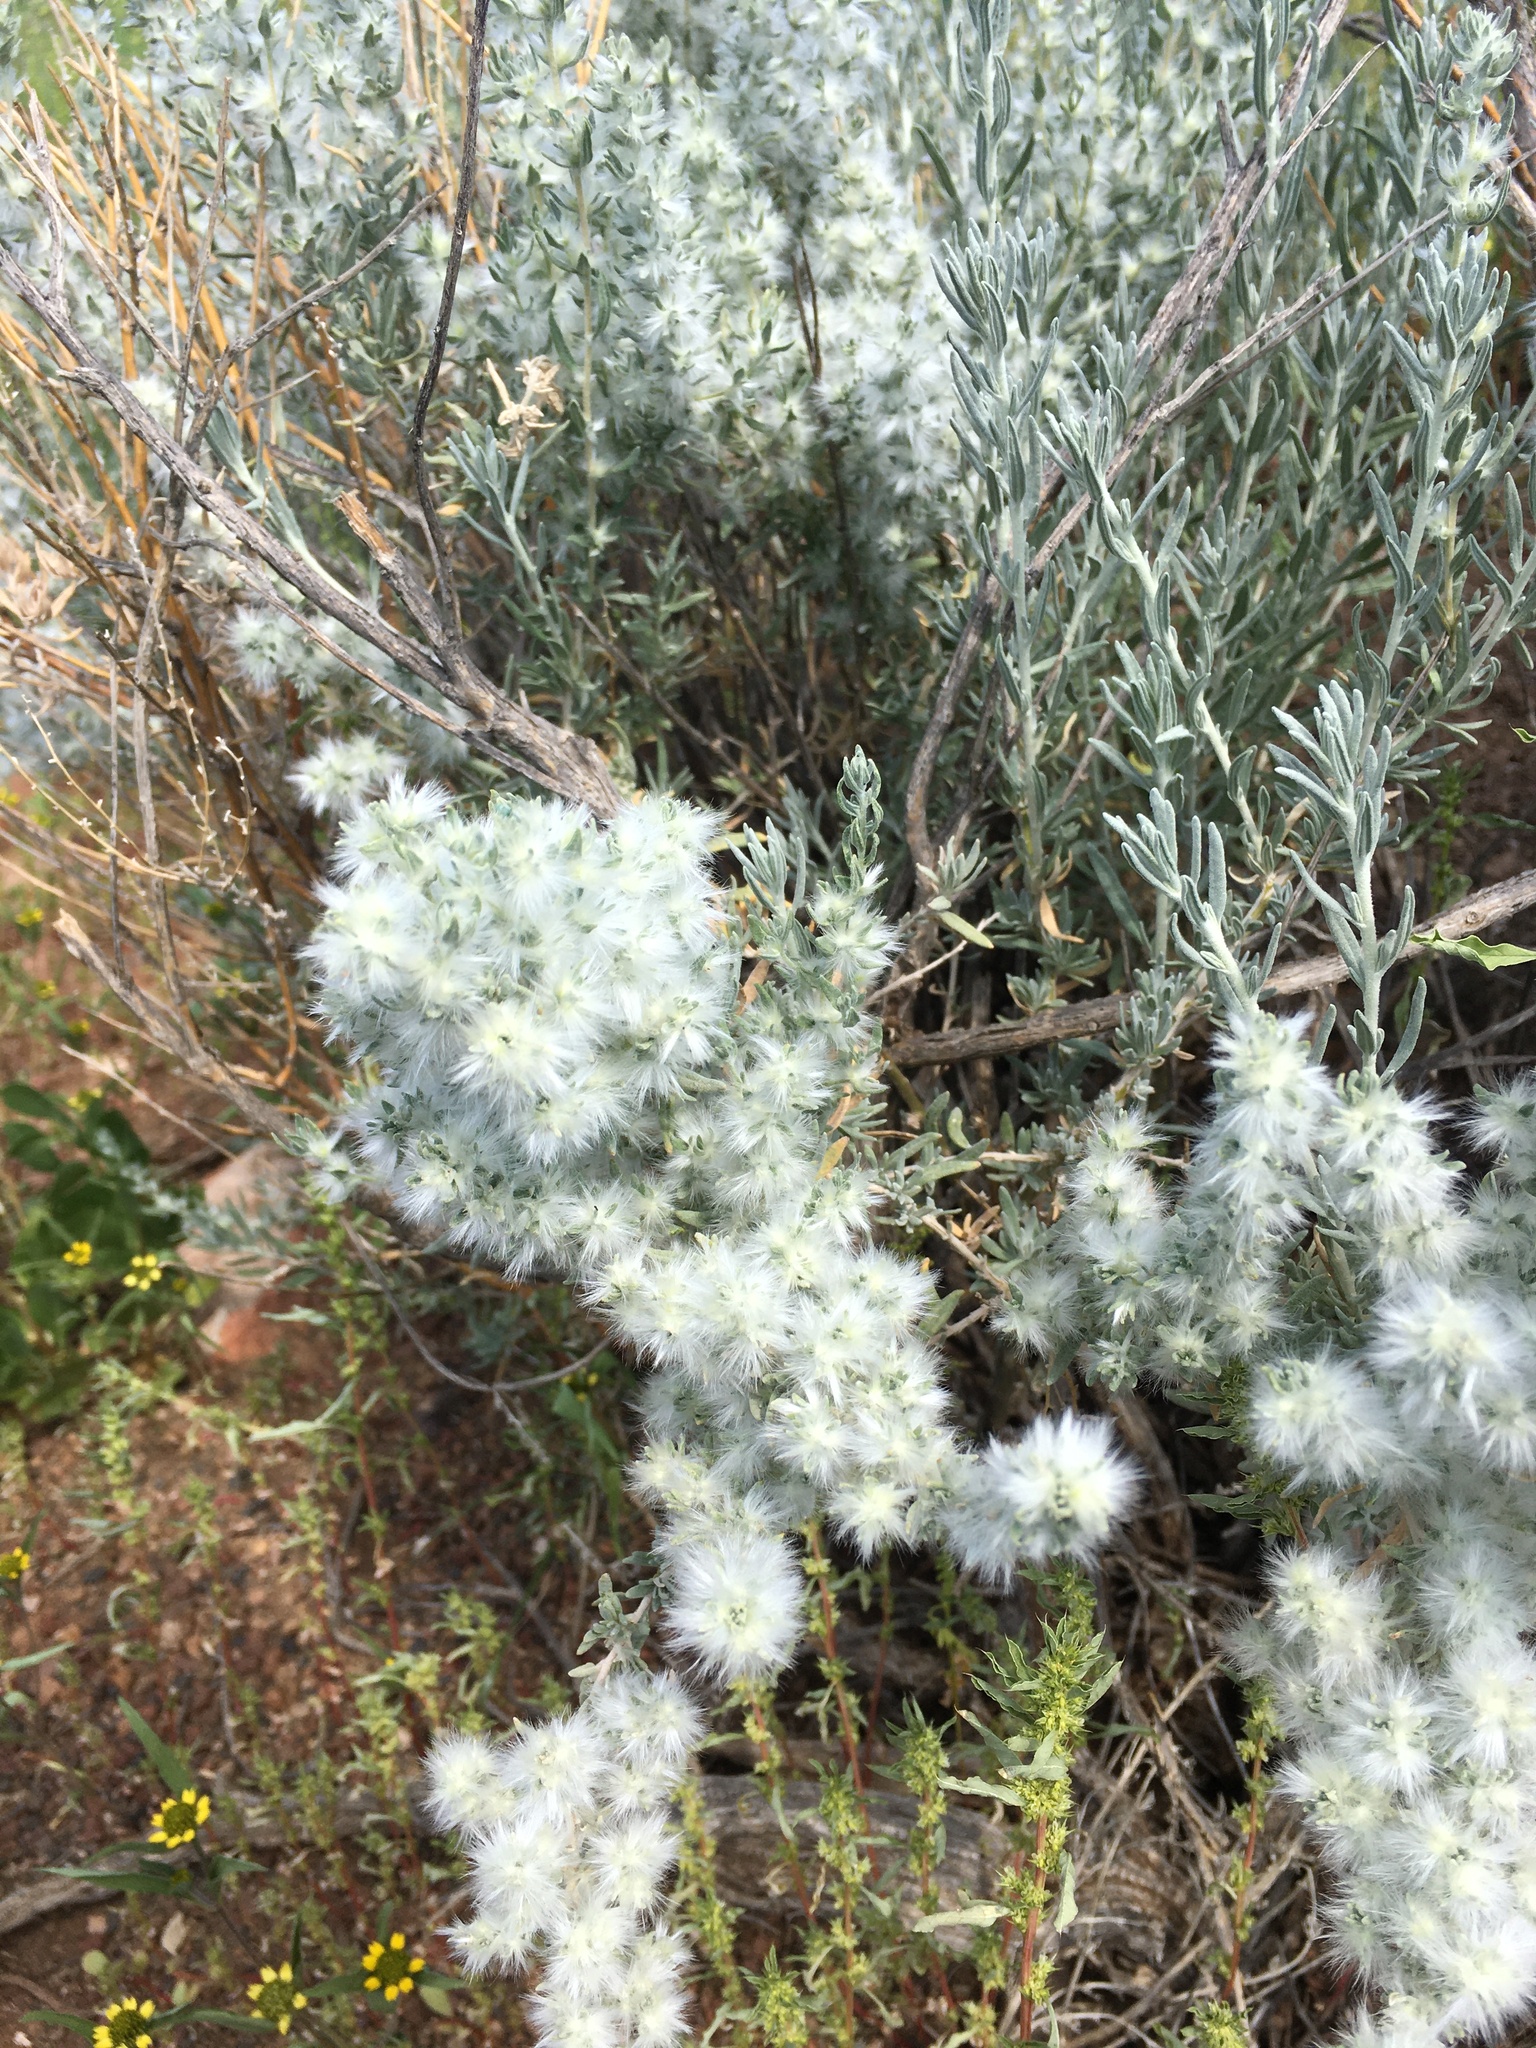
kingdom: Plantae
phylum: Tracheophyta
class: Magnoliopsida
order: Caryophyllales
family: Amaranthaceae
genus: Krascheninnikovia
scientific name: Krascheninnikovia lanata
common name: Winterfat
